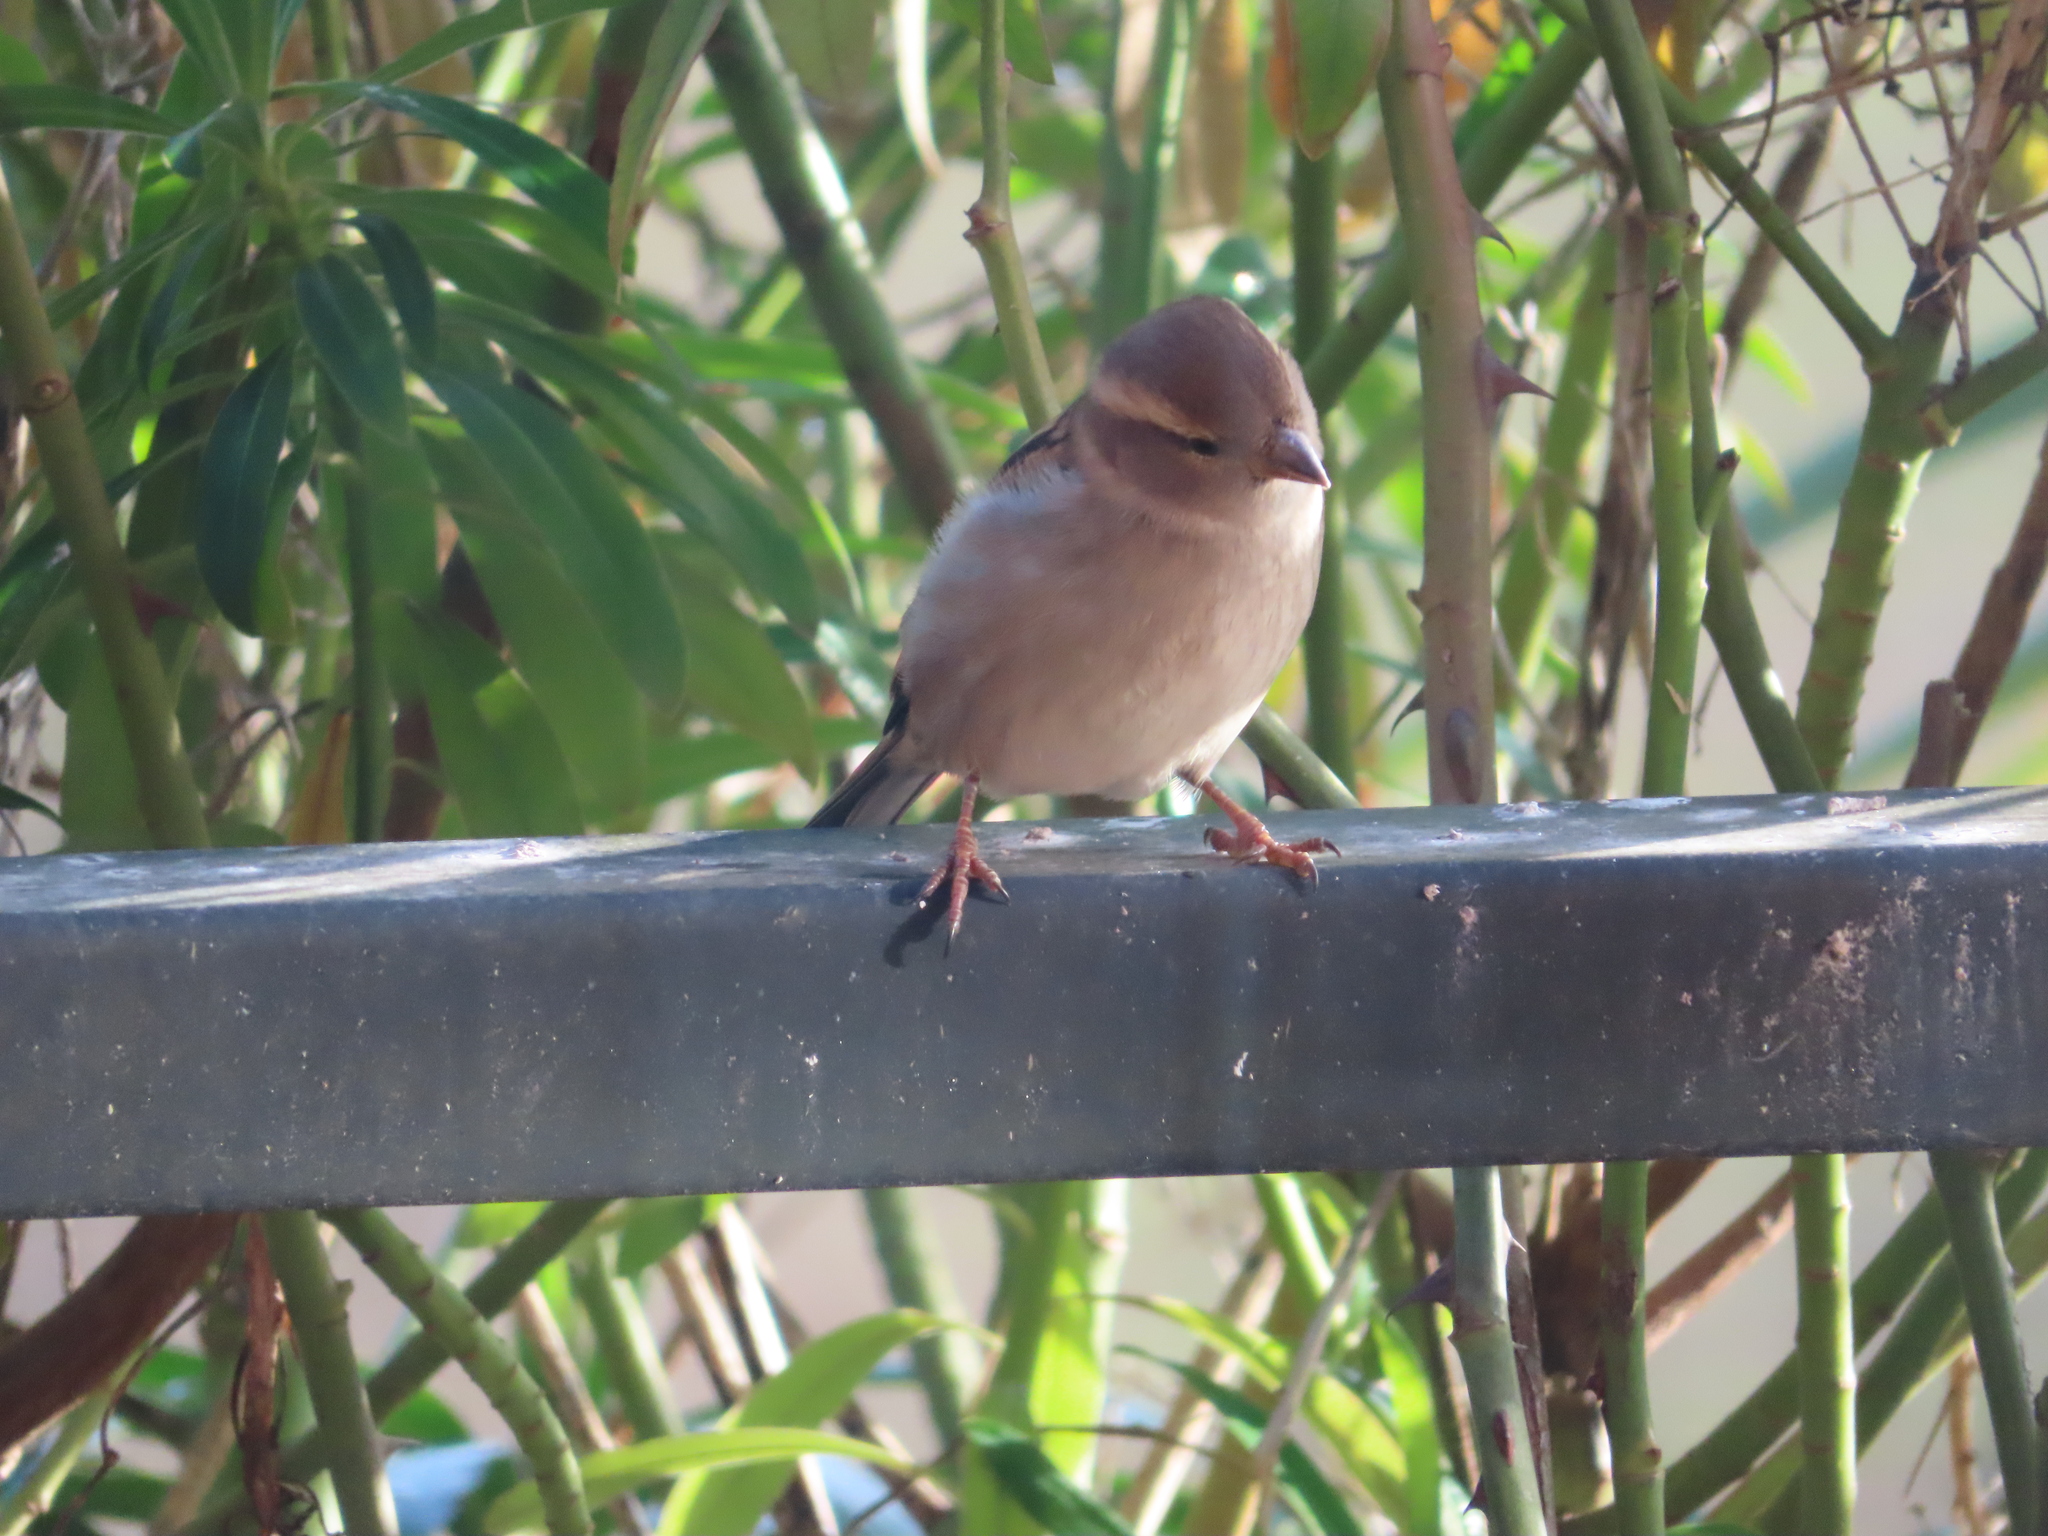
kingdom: Animalia
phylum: Chordata
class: Aves
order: Passeriformes
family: Passeridae
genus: Passer
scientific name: Passer domesticus
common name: House sparrow
